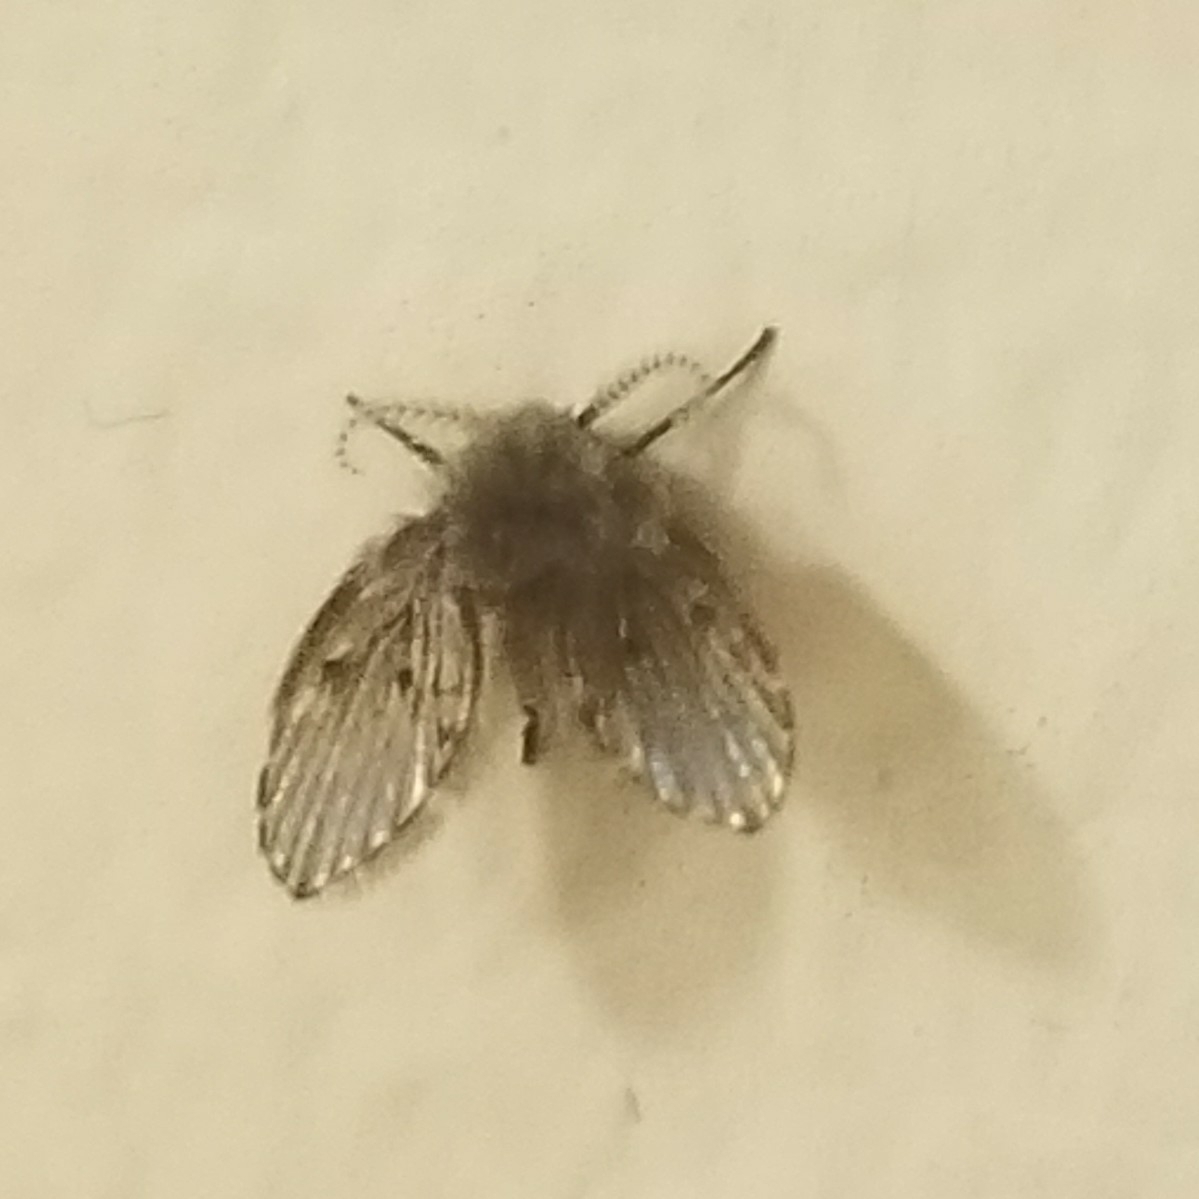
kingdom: Animalia
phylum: Arthropoda
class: Insecta
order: Diptera
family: Psychodidae
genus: Clogmia
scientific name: Clogmia albipunctatus
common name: White-spotted moth fly
